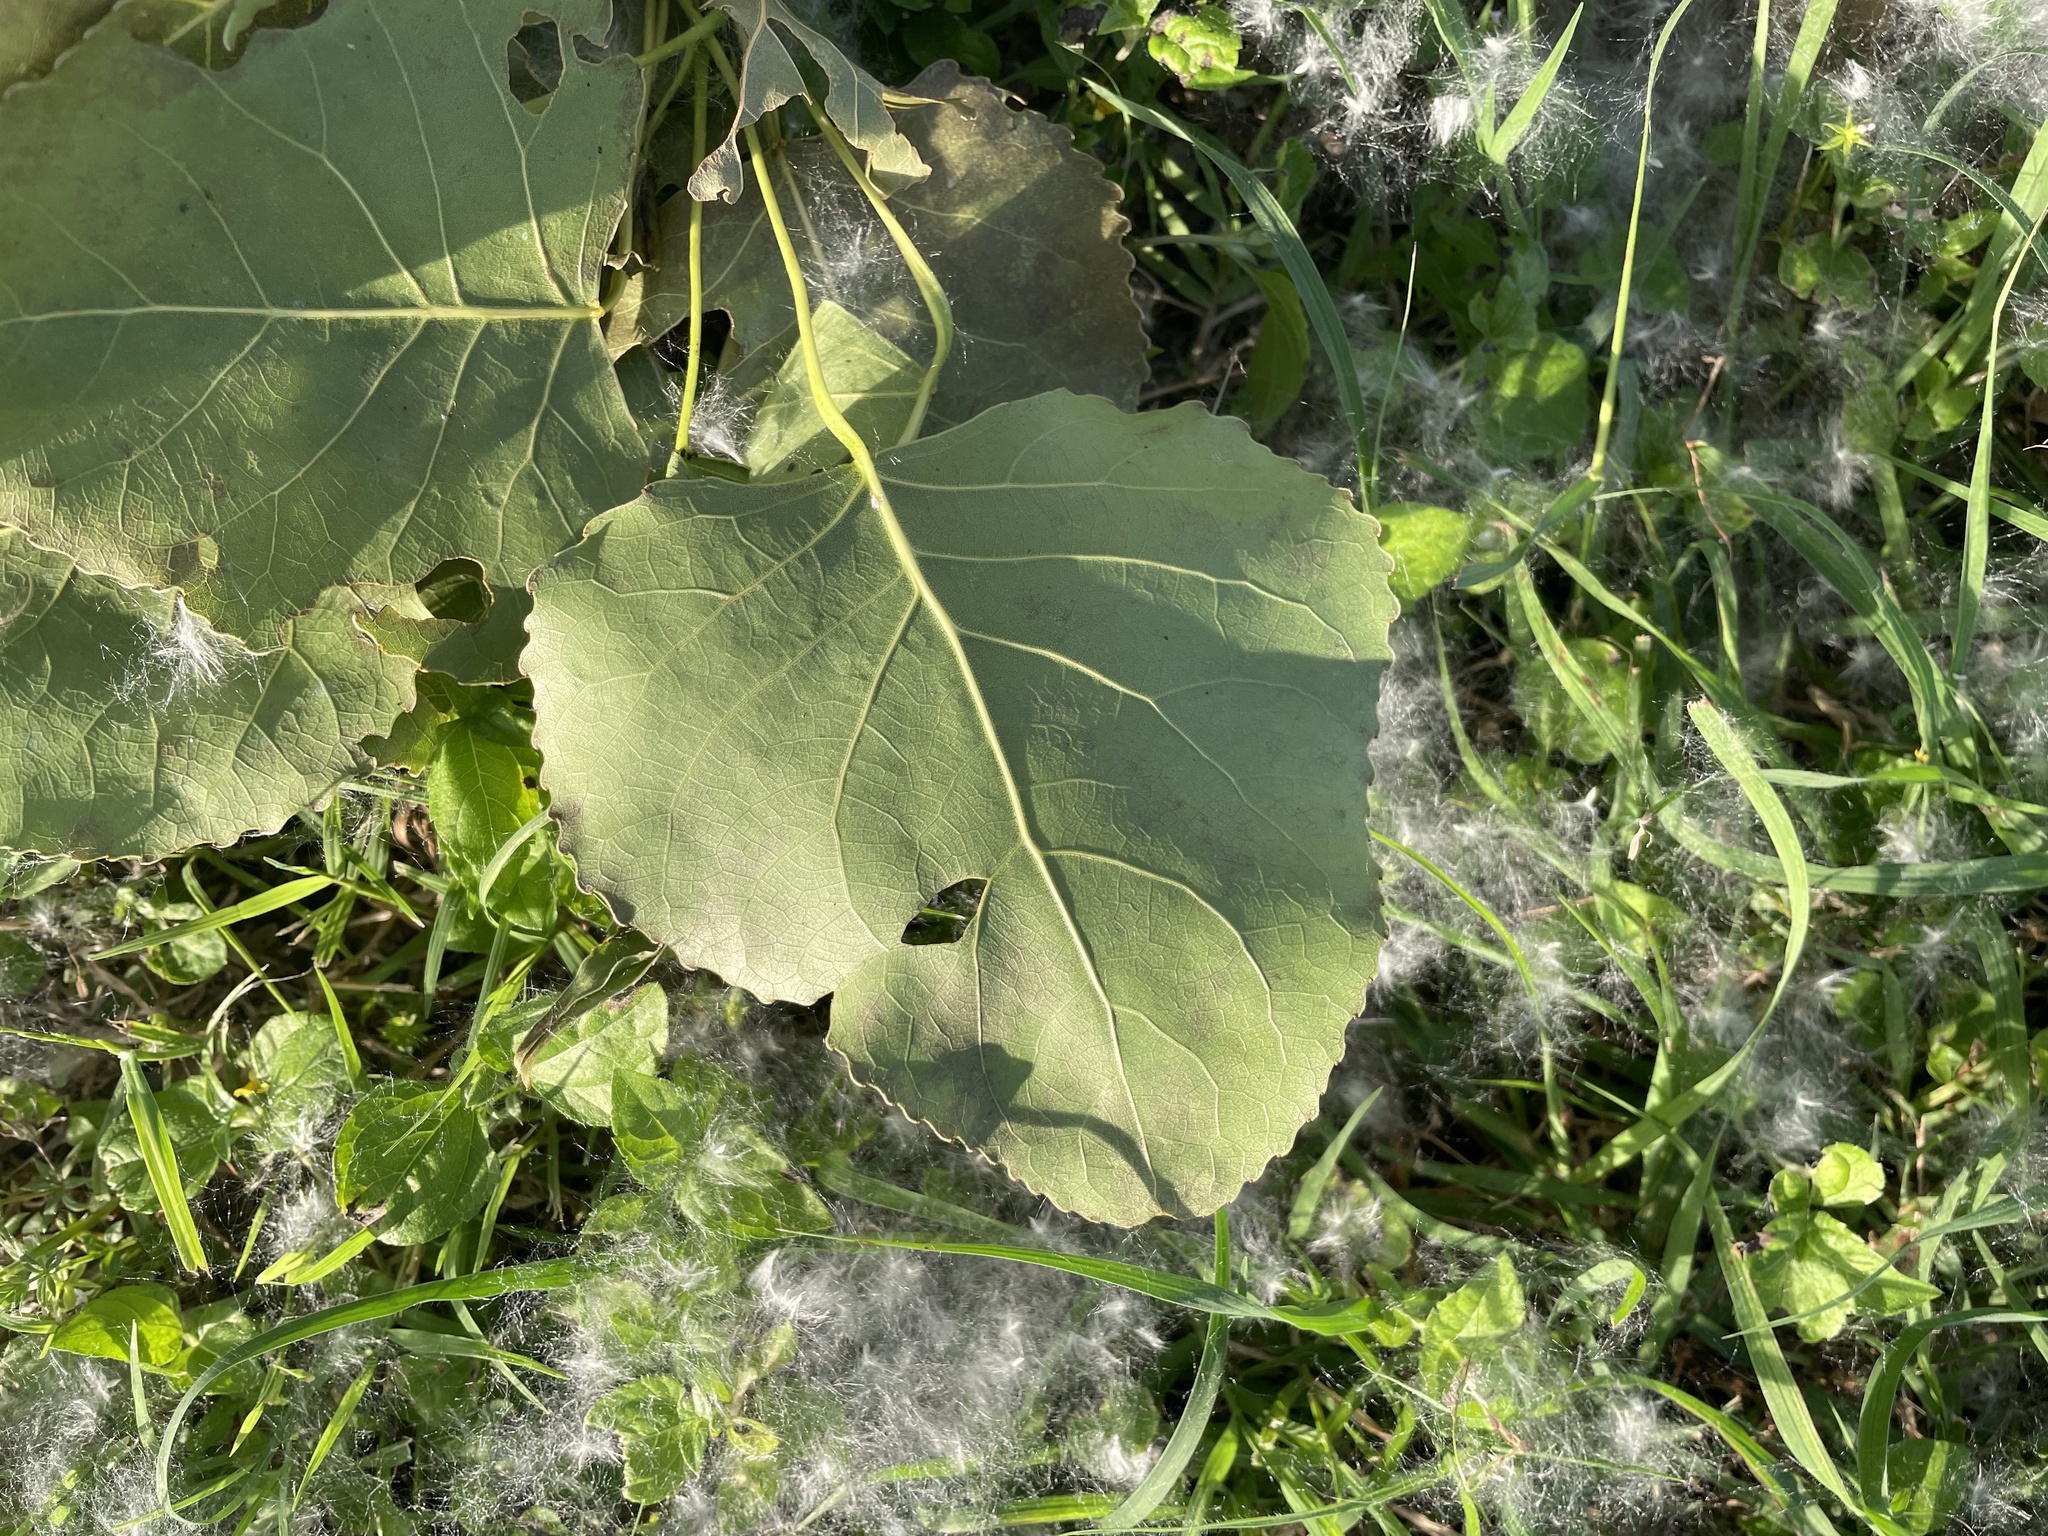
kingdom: Plantae
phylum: Tracheophyta
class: Magnoliopsida
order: Malpighiales
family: Salicaceae
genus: Populus
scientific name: Populus deltoides
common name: Eastern cottonwood
